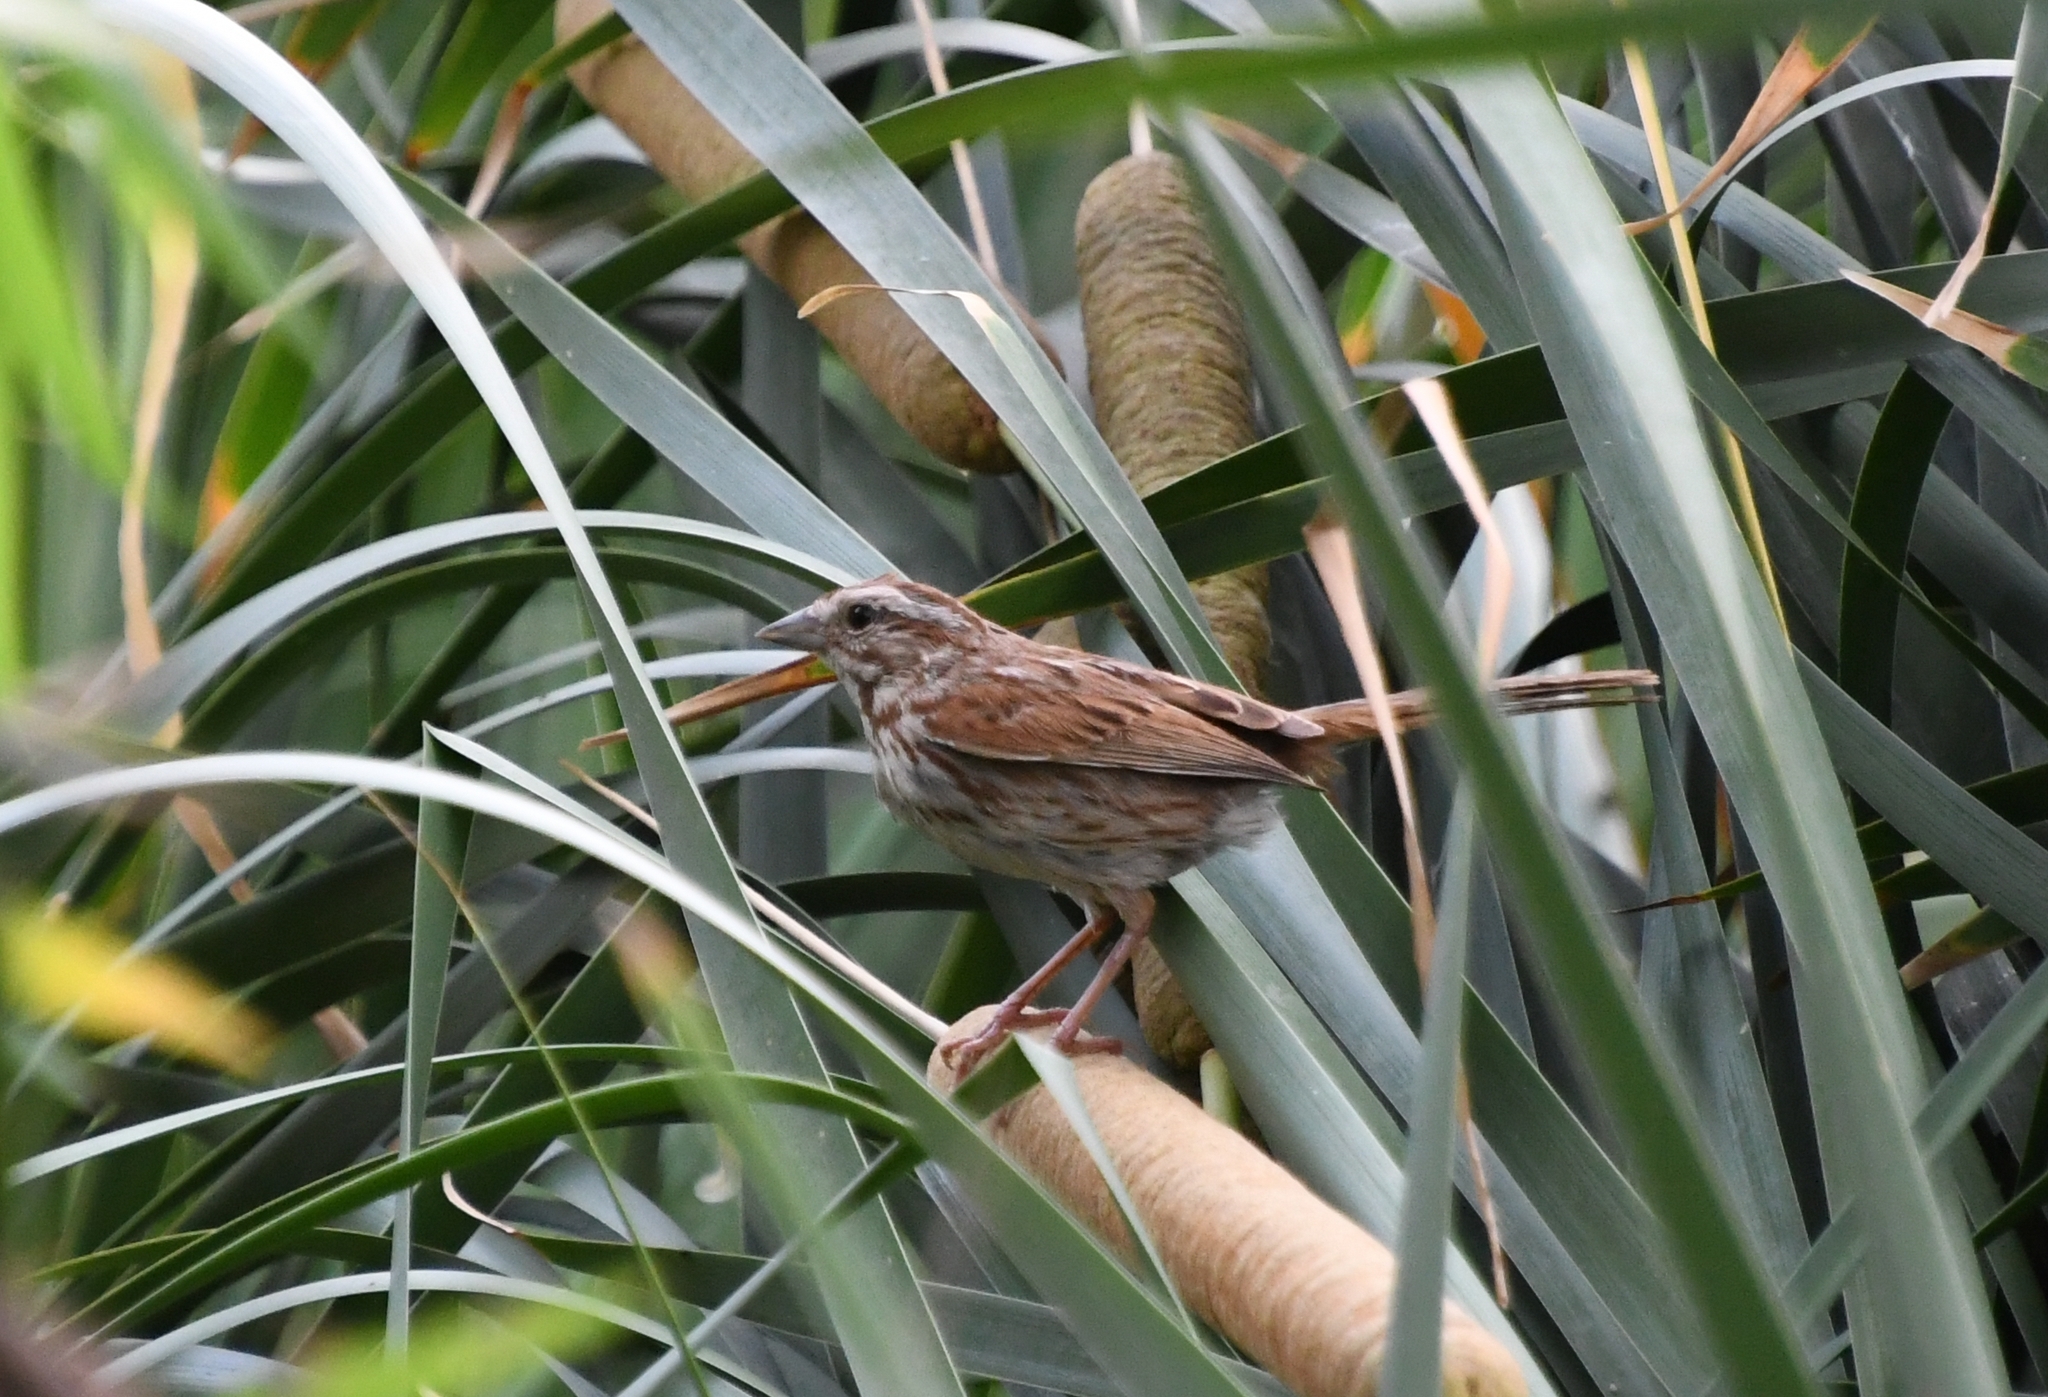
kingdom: Animalia
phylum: Chordata
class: Aves
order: Passeriformes
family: Passerellidae
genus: Melospiza
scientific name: Melospiza melodia
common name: Song sparrow
